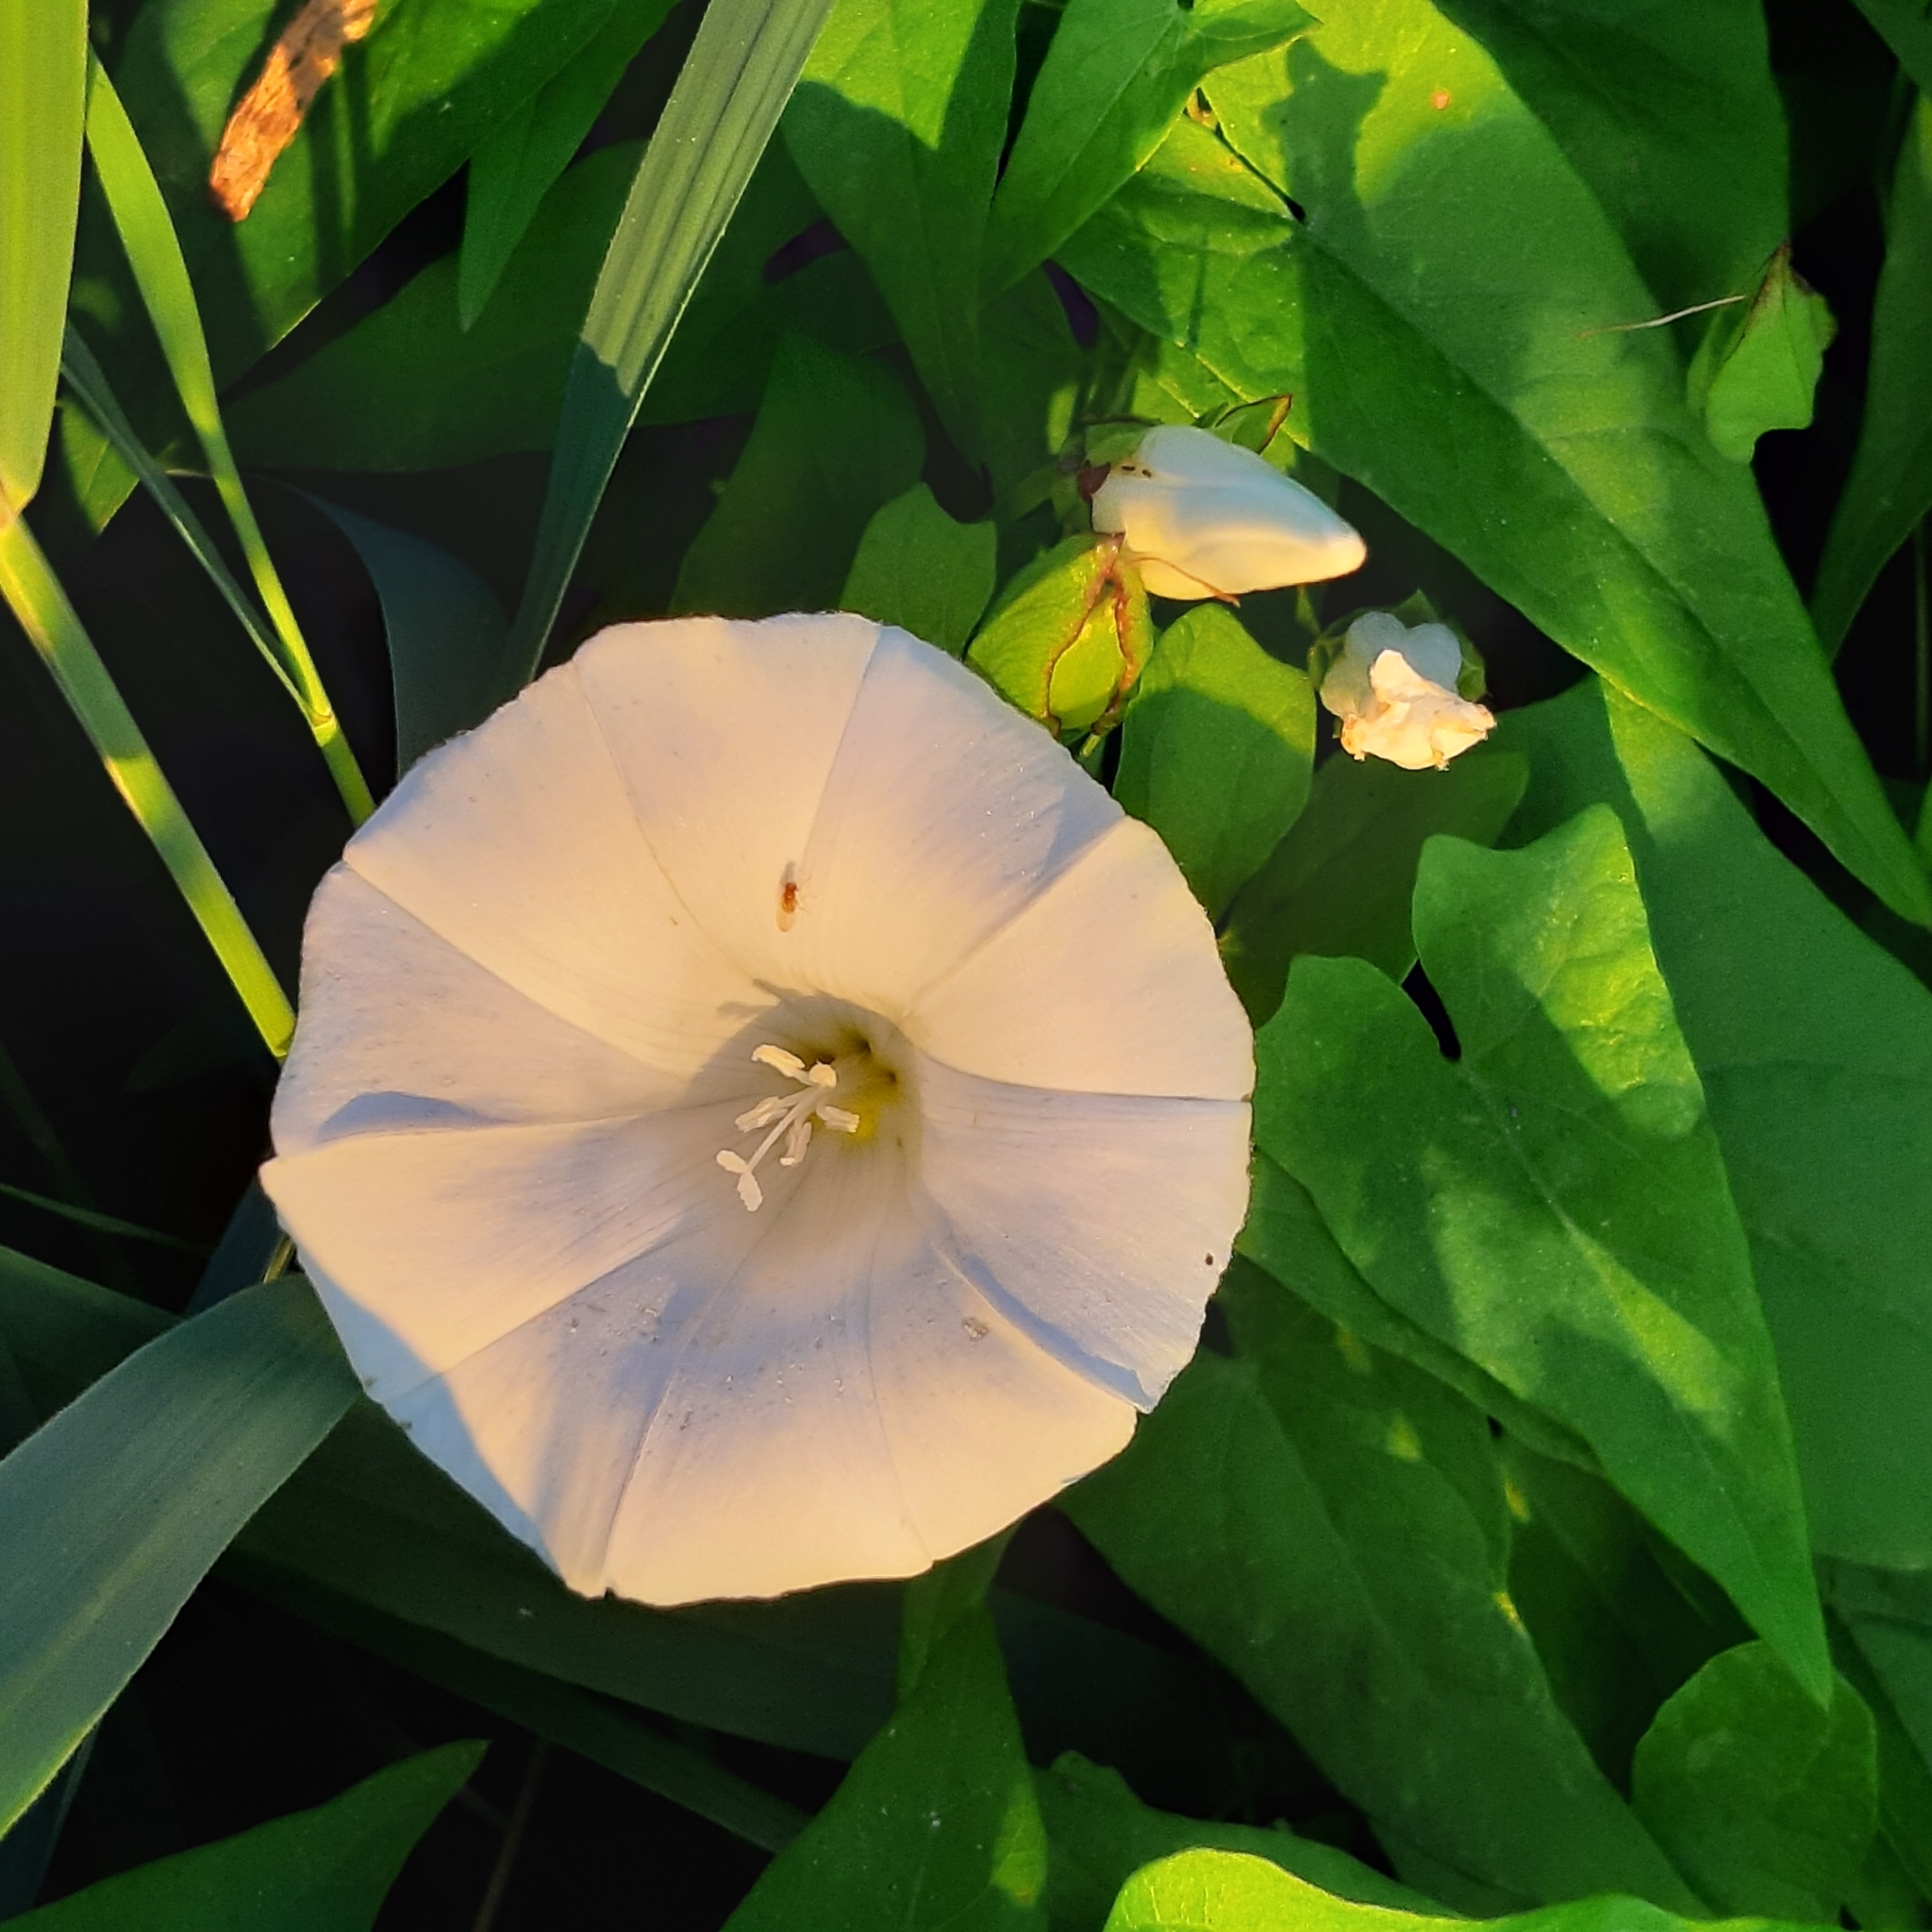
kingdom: Plantae
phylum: Tracheophyta
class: Magnoliopsida
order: Solanales
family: Convolvulaceae
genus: Calystegia
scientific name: Calystegia sepium
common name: Hedge bindweed
